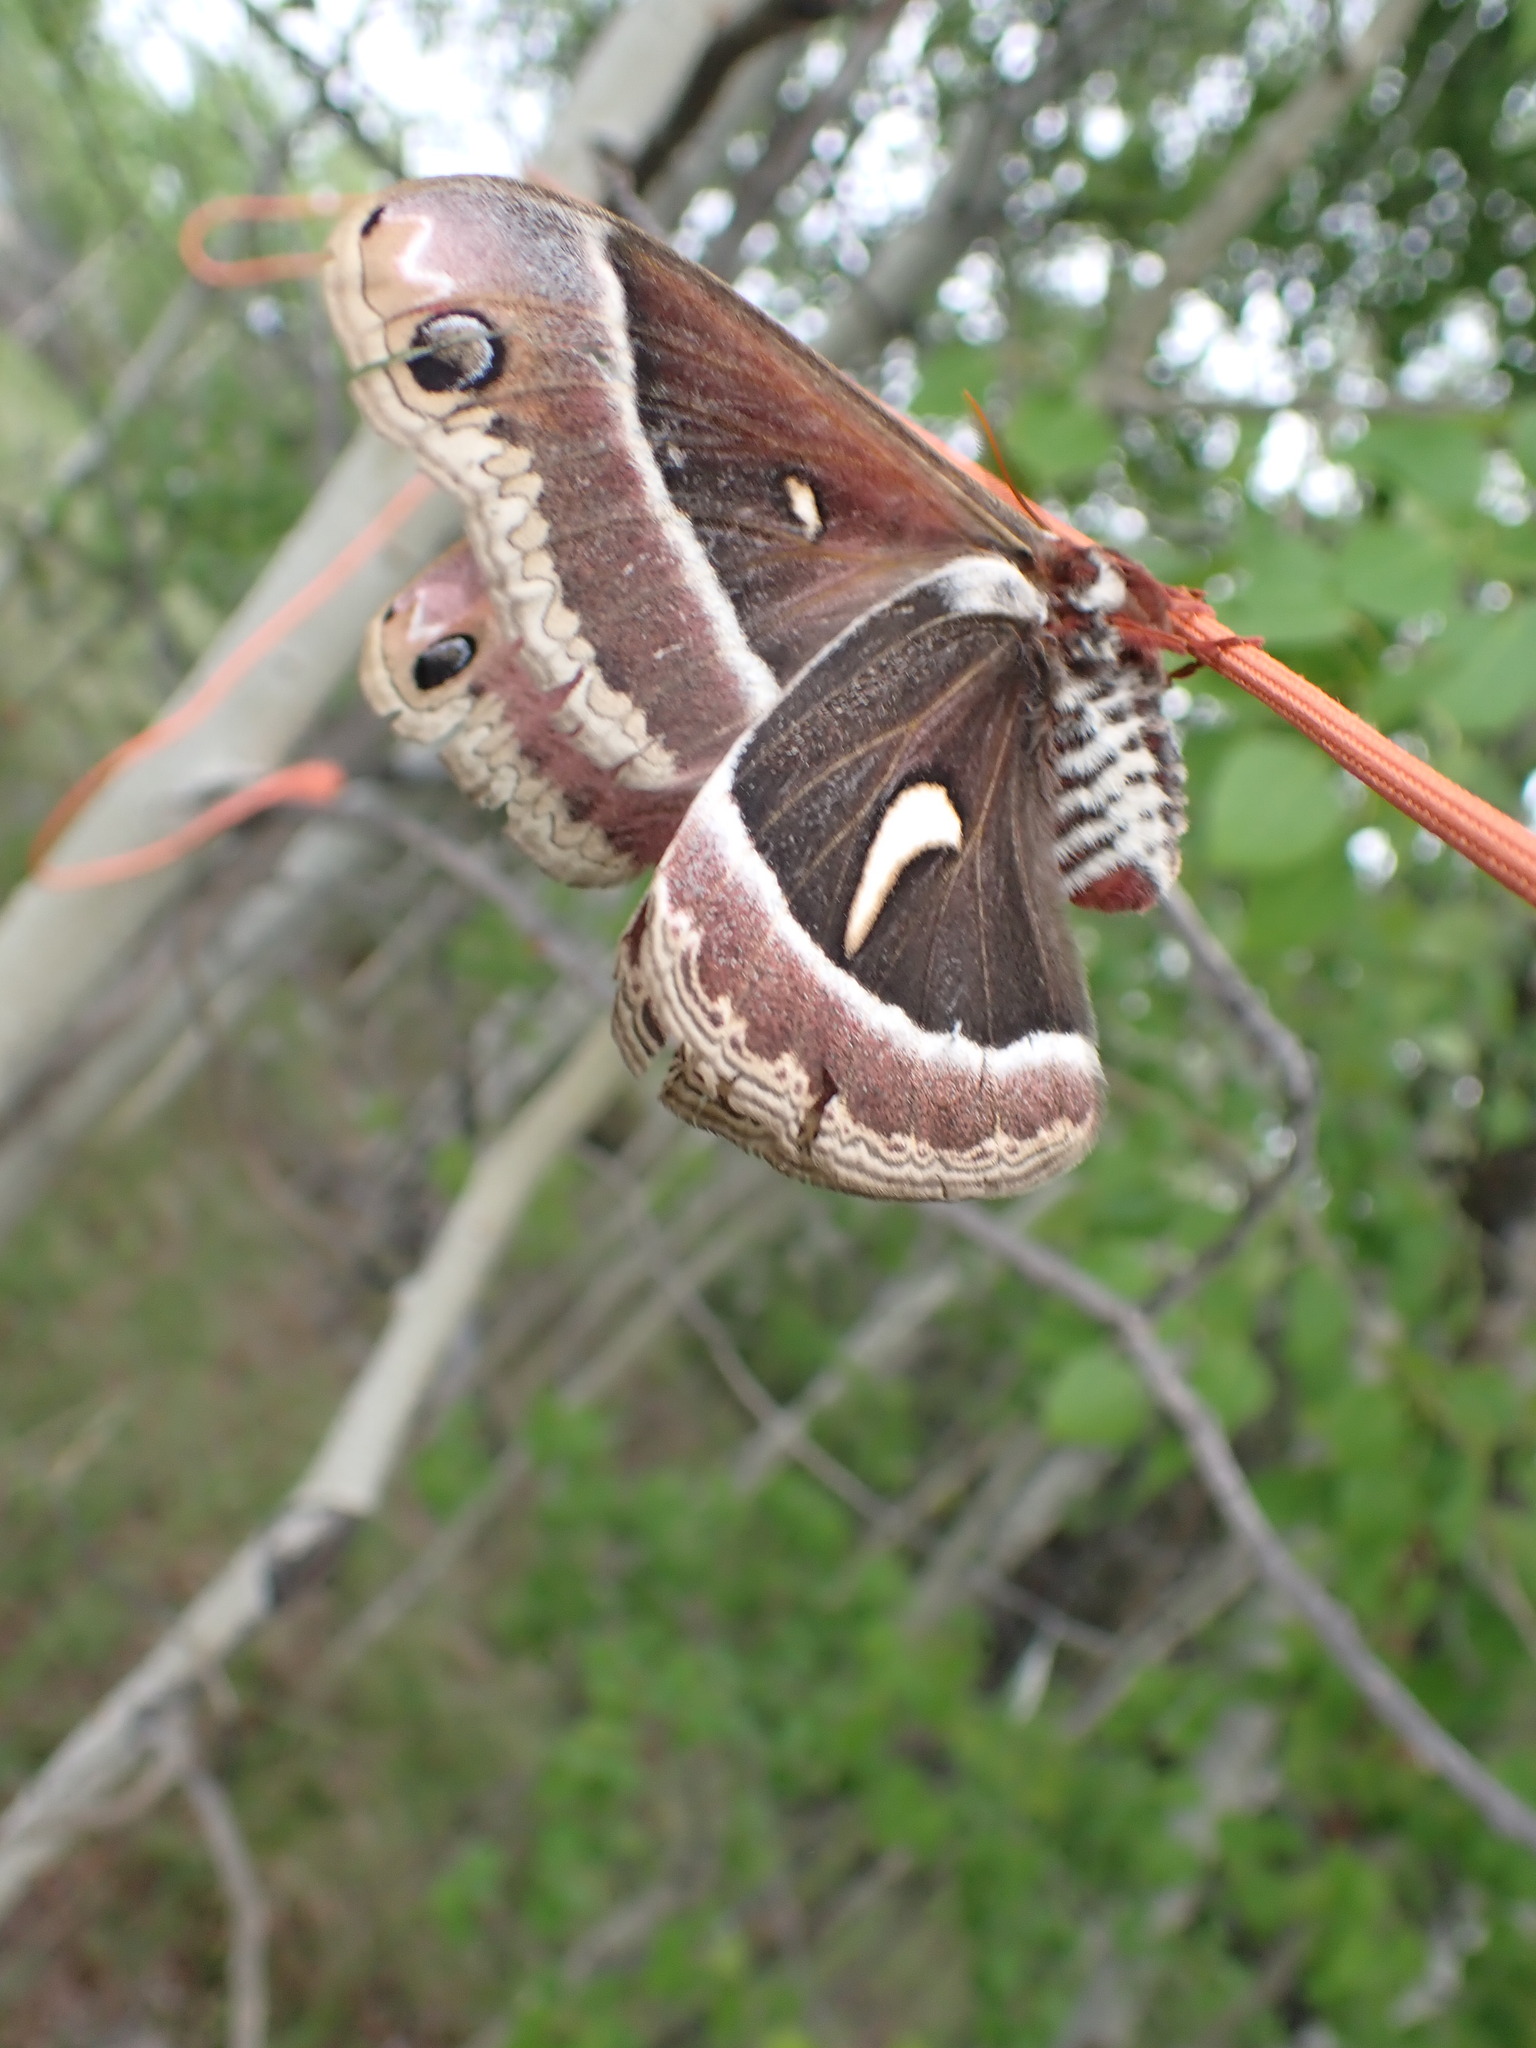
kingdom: Animalia
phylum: Arthropoda
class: Insecta
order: Lepidoptera
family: Saturniidae
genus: Hyalophora
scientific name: Hyalophora euryalus
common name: Ceanothus silkmoth
